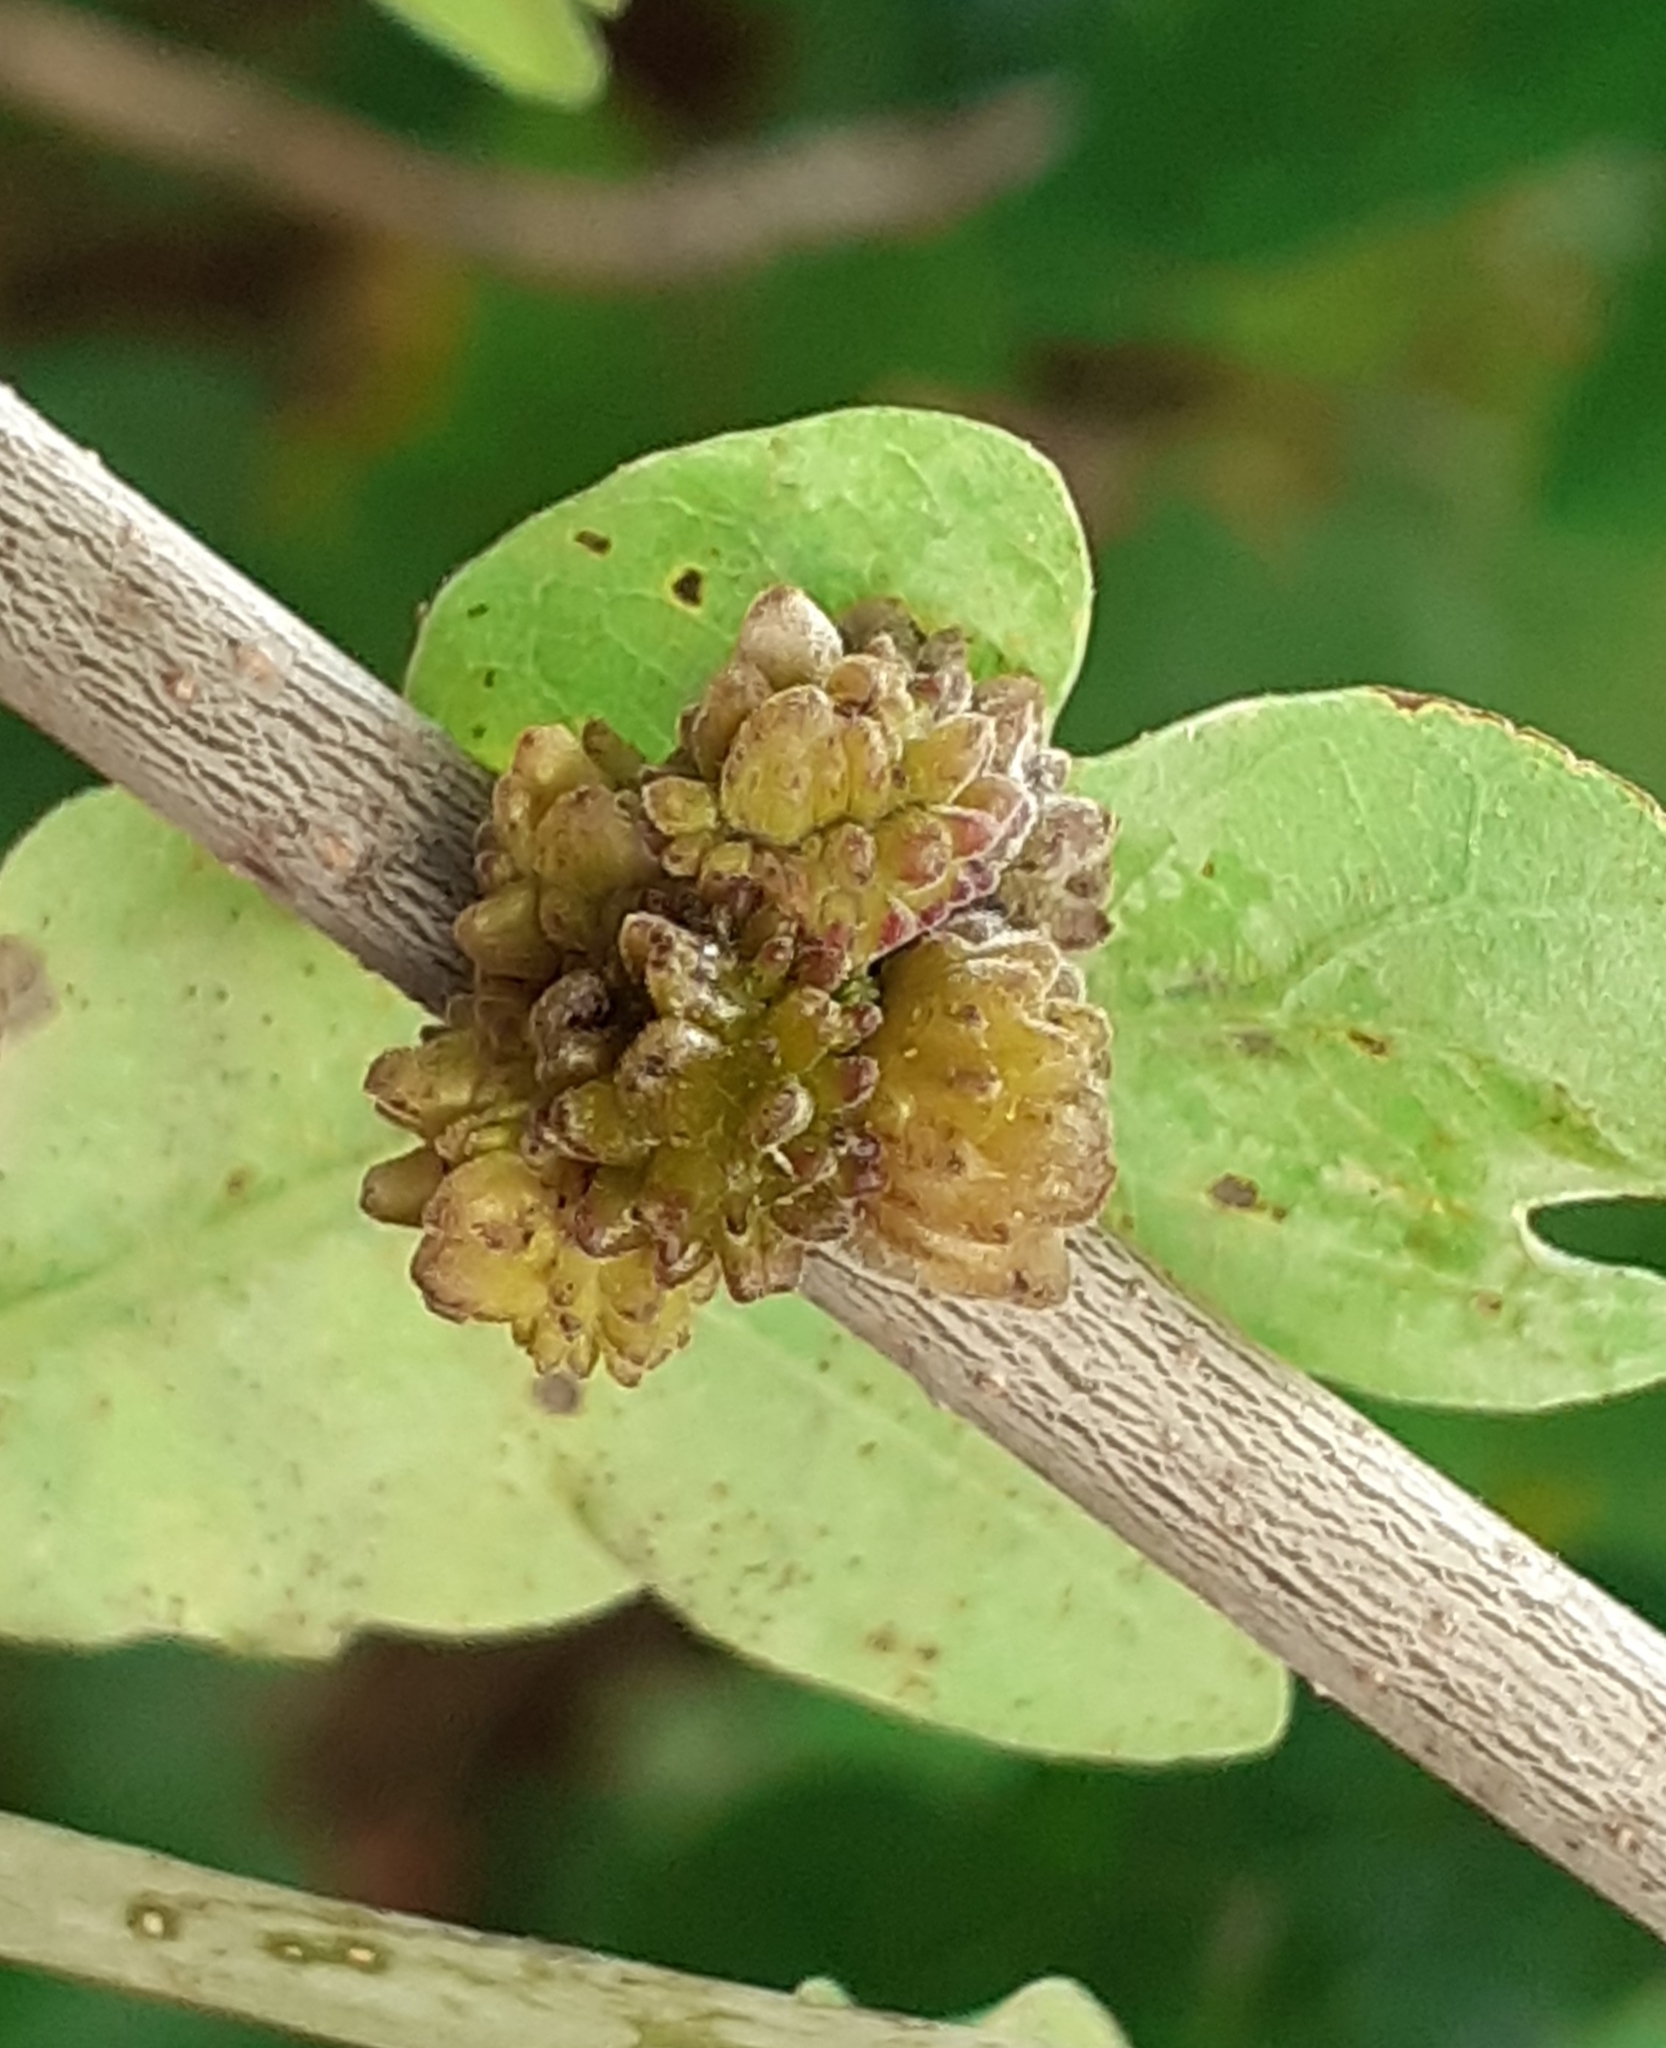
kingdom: Animalia
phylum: Arthropoda
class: Insecta
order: Hymenoptera
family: Cynipidae
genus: Andricus
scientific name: Andricus gemmeus
